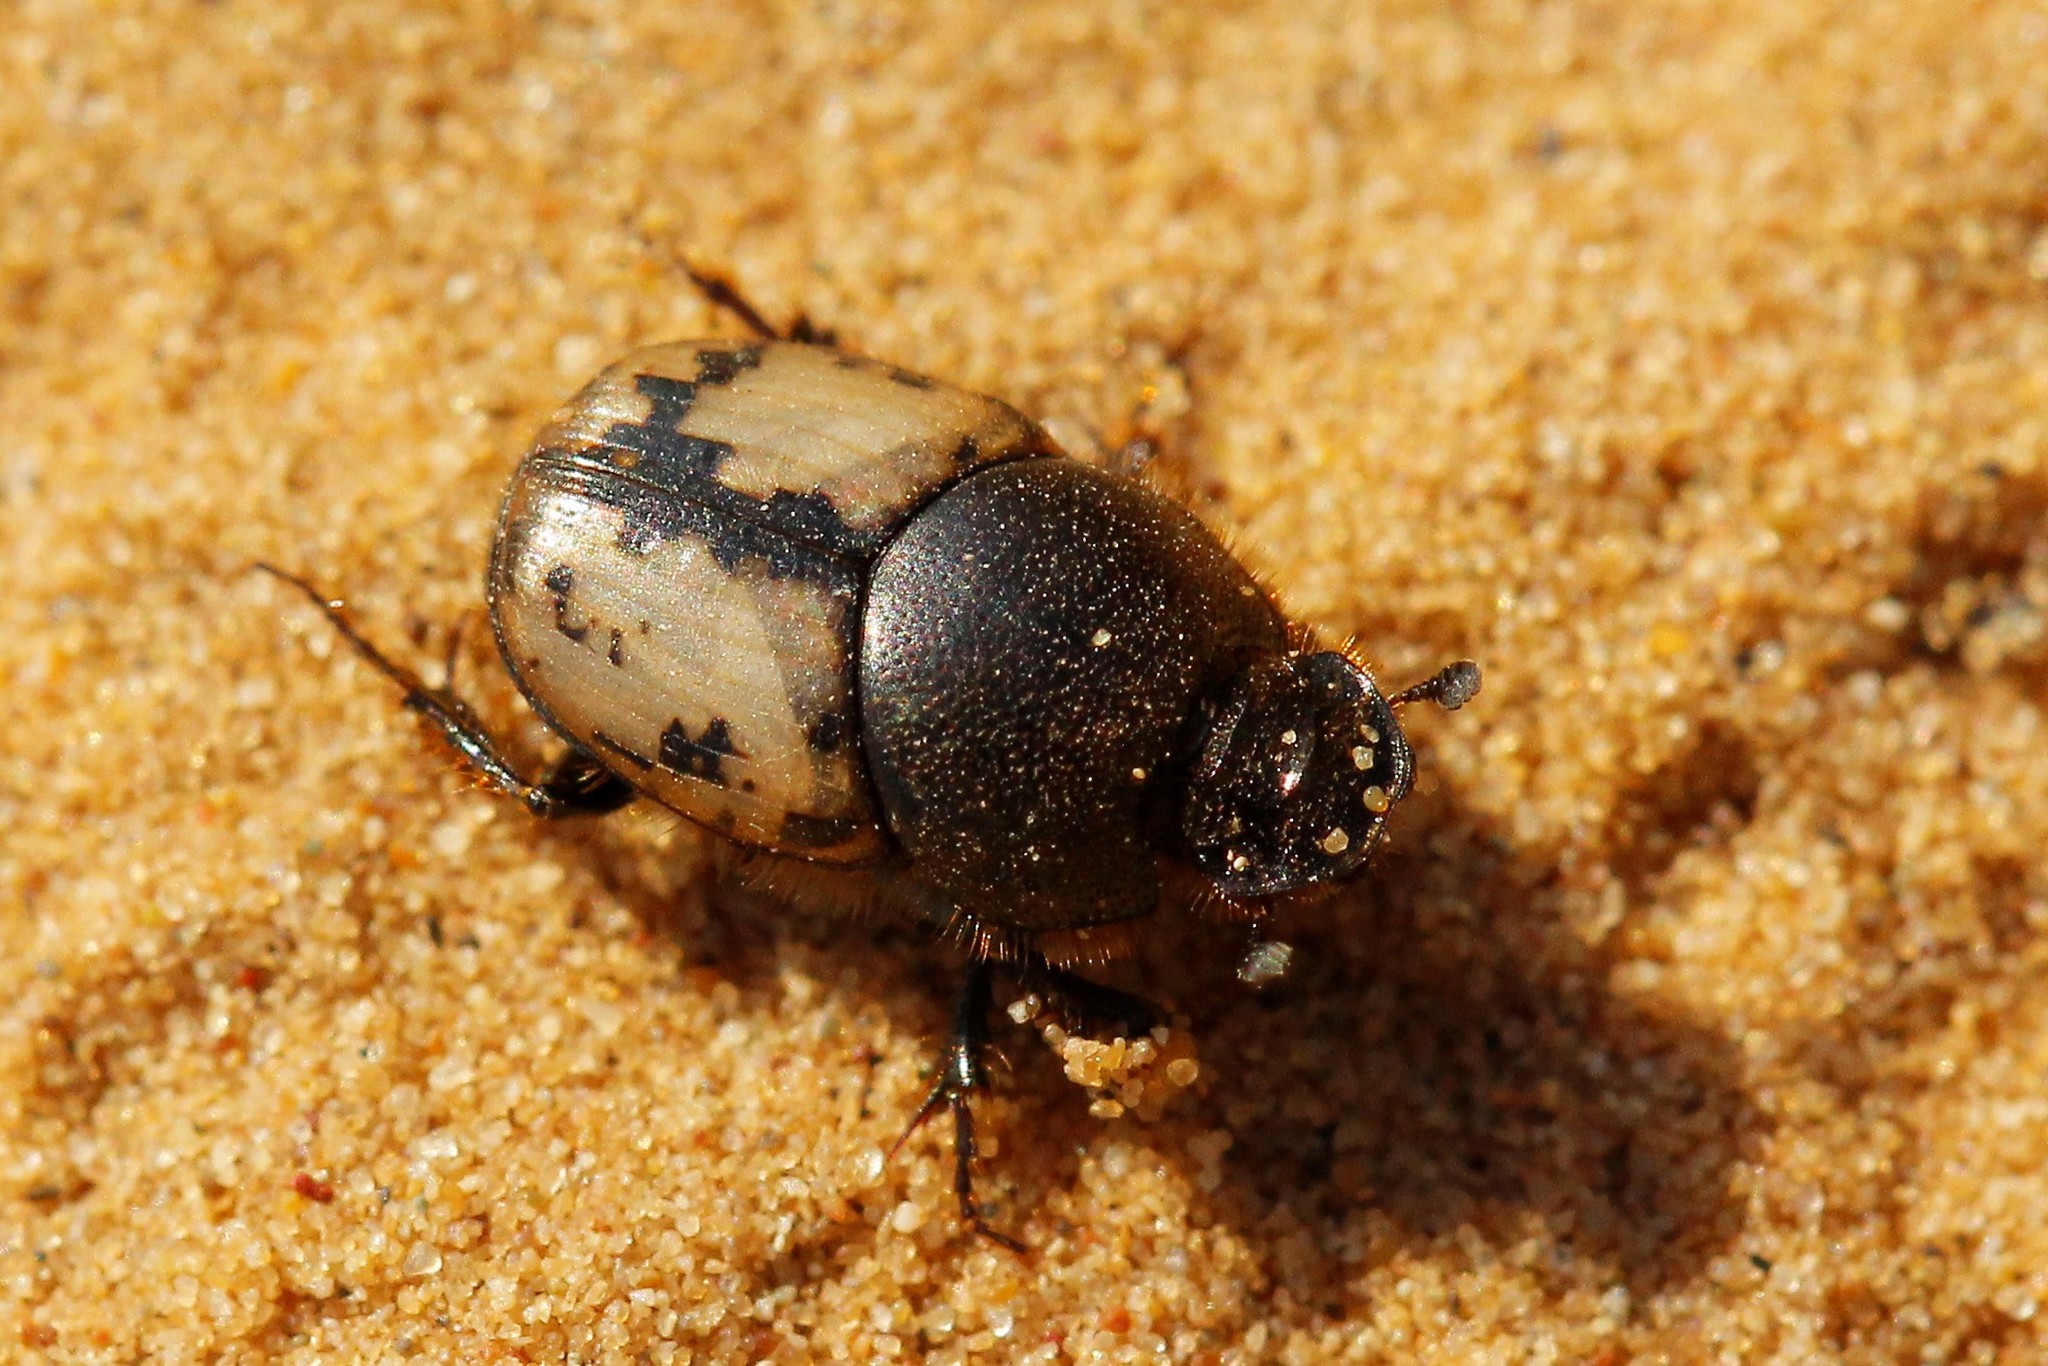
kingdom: Animalia
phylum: Arthropoda
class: Insecta
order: Coleoptera
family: Scarabaeidae
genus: Onthophagus
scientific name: Onthophagus suturellus
